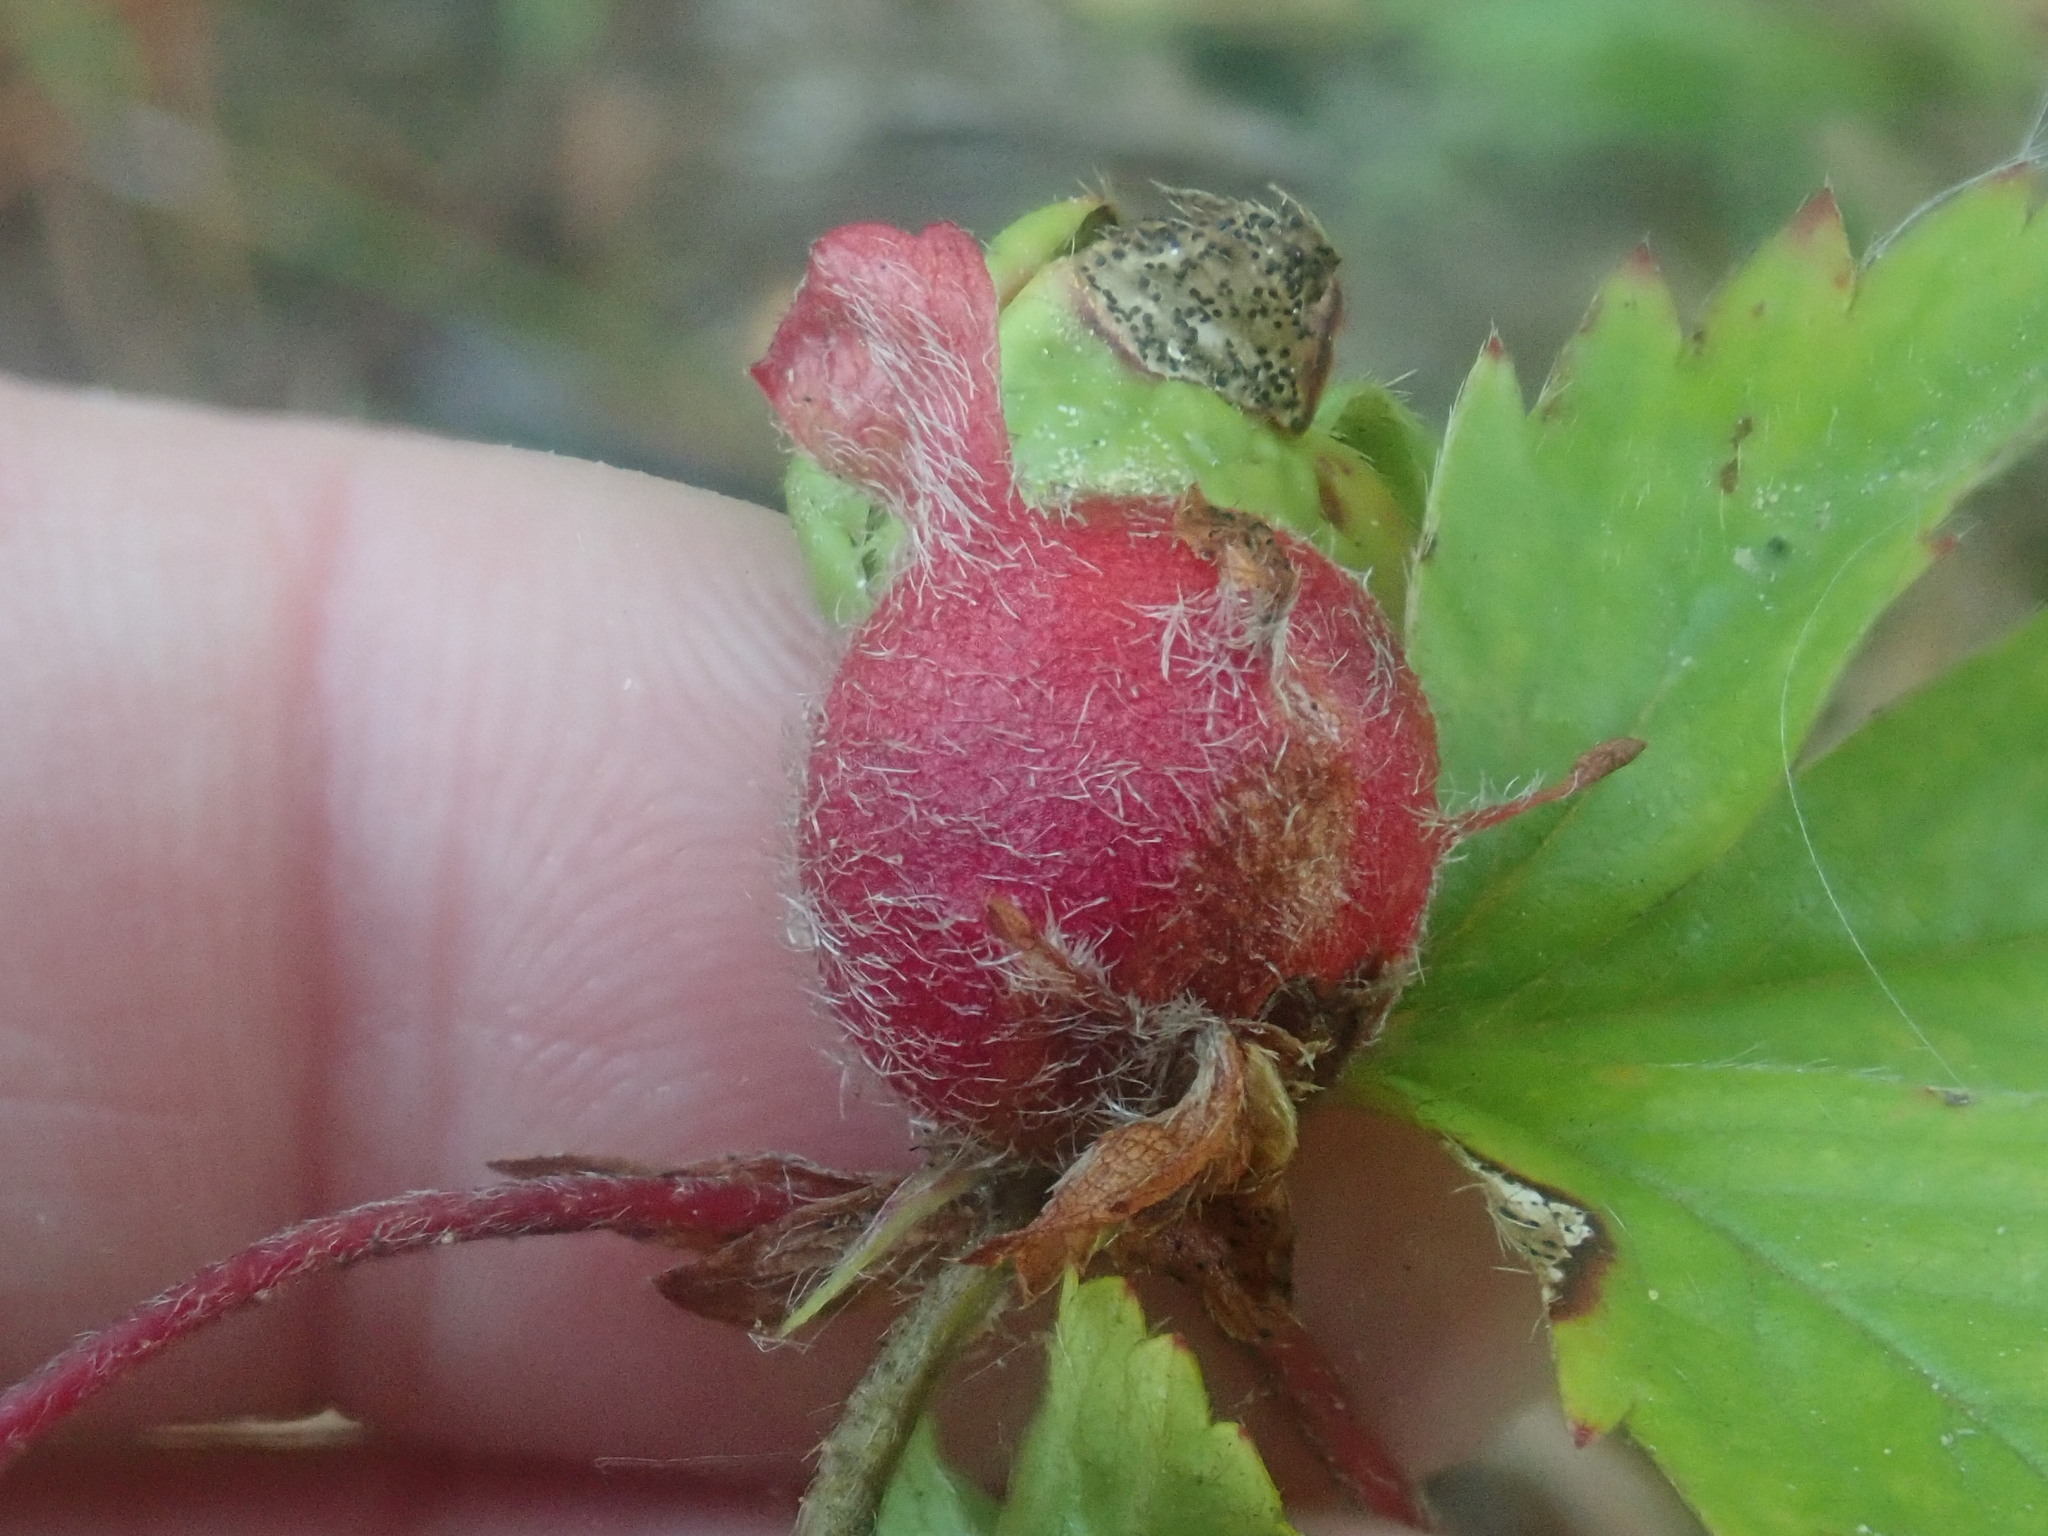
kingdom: Animalia
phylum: Arthropoda
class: Insecta
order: Hymenoptera
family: Cynipidae
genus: Diastrophus
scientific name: Diastrophus potentillae
